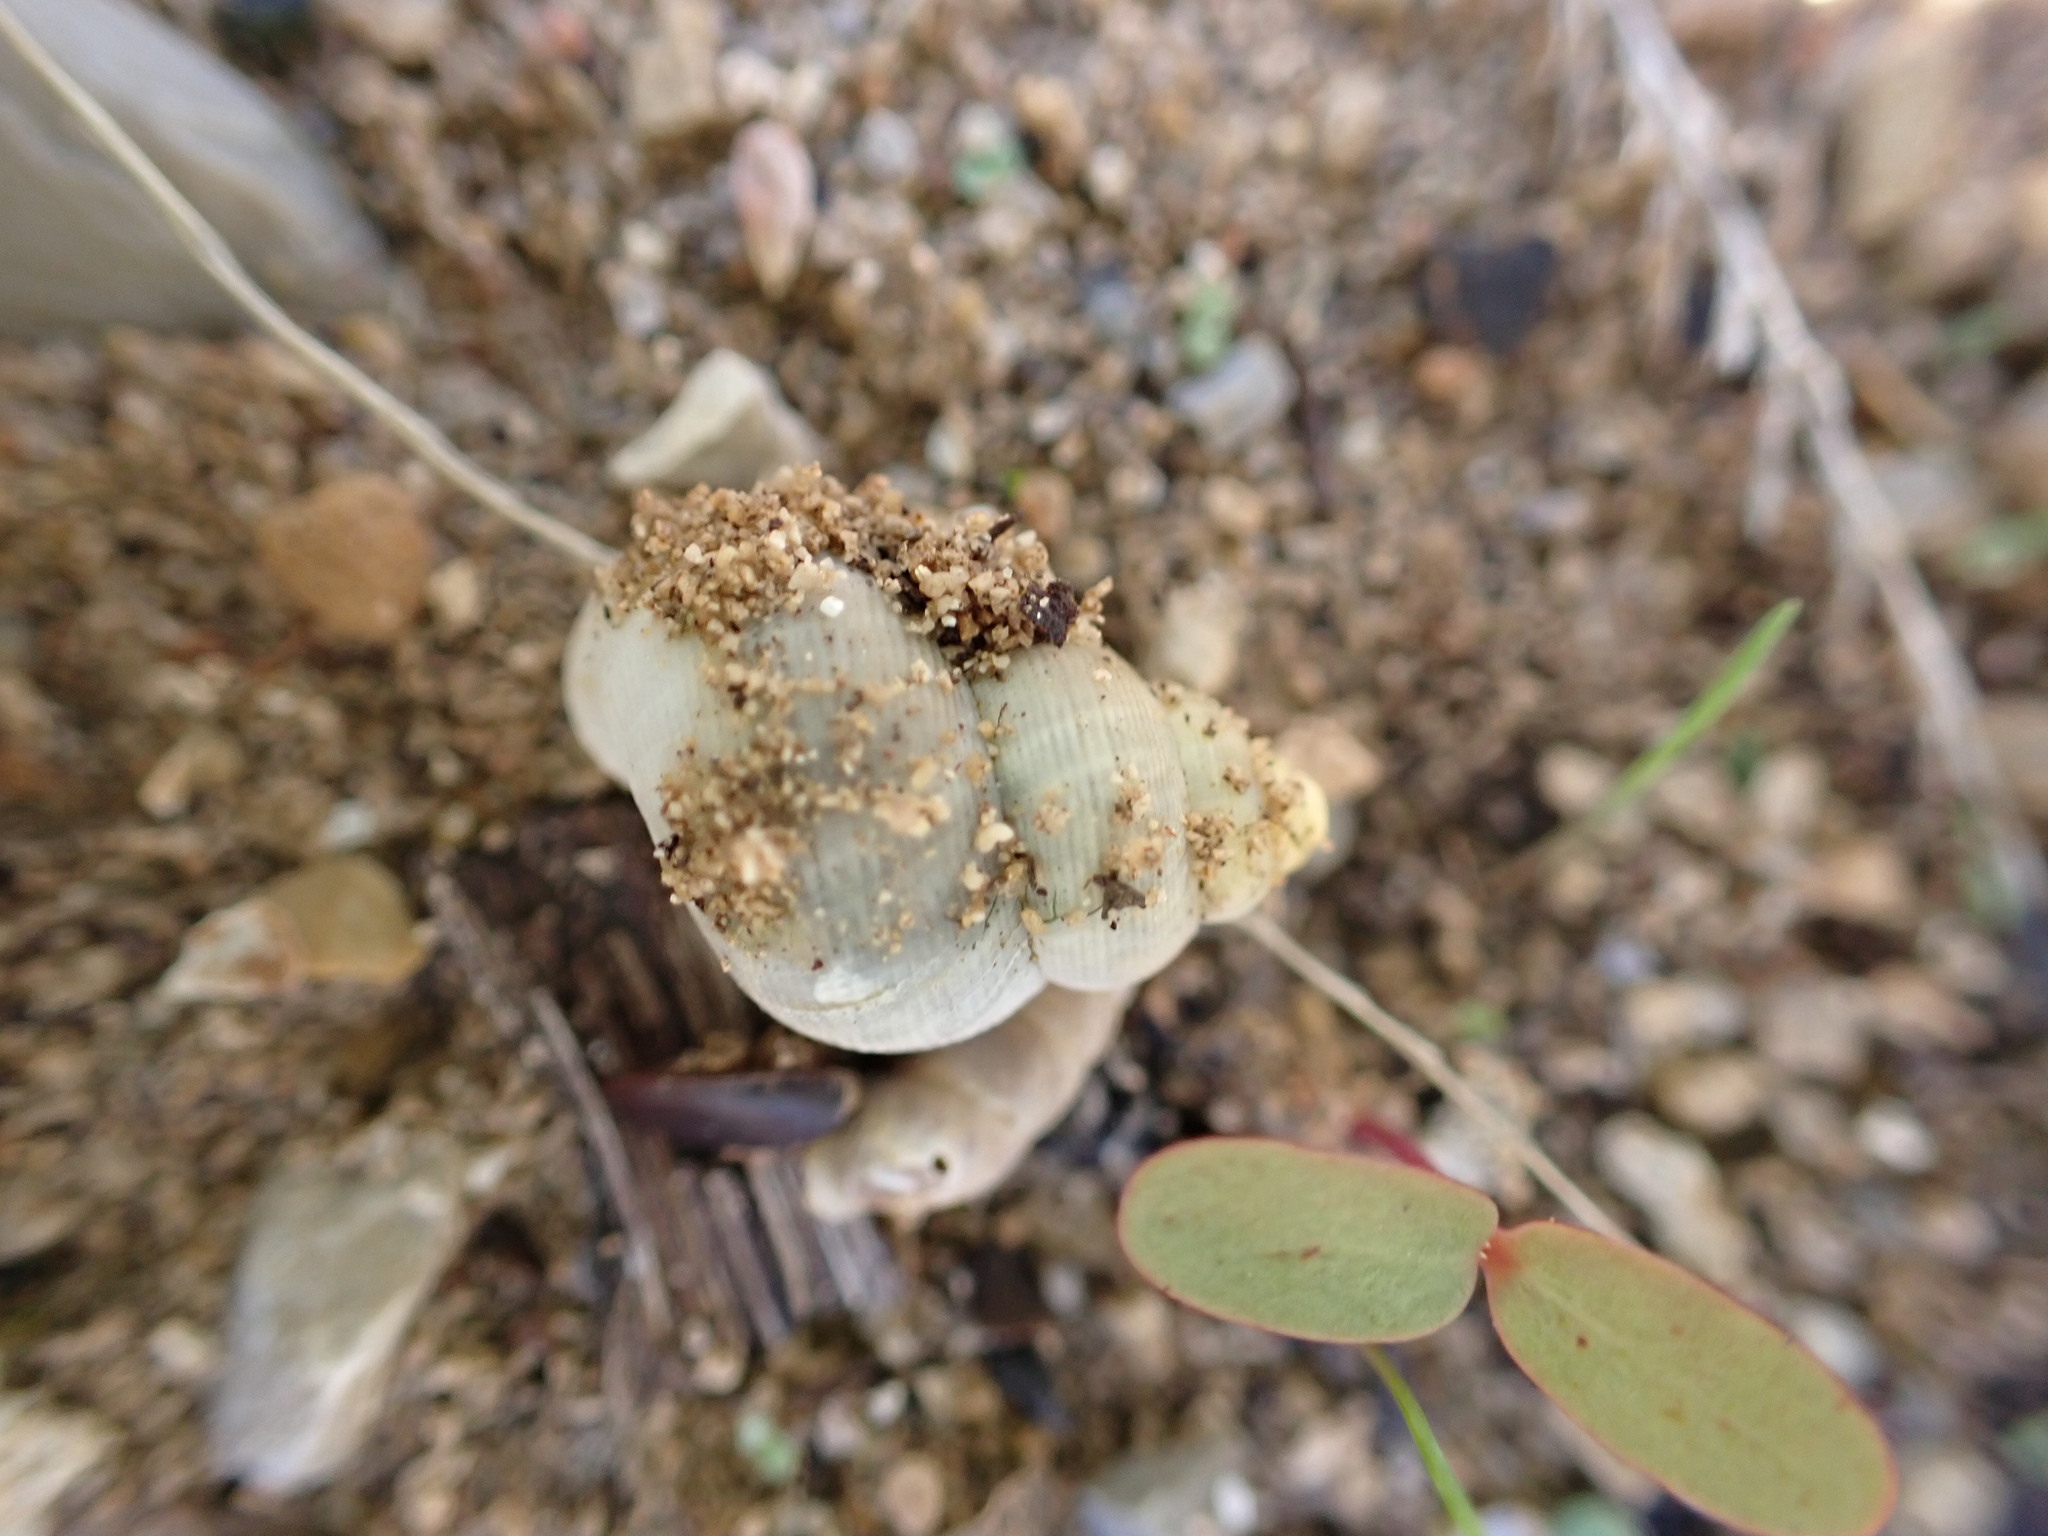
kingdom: Animalia
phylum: Mollusca
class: Gastropoda
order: Littorinimorpha
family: Pomatiidae
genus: Pomatias
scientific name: Pomatias elegans
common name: Red-mouthed snail
